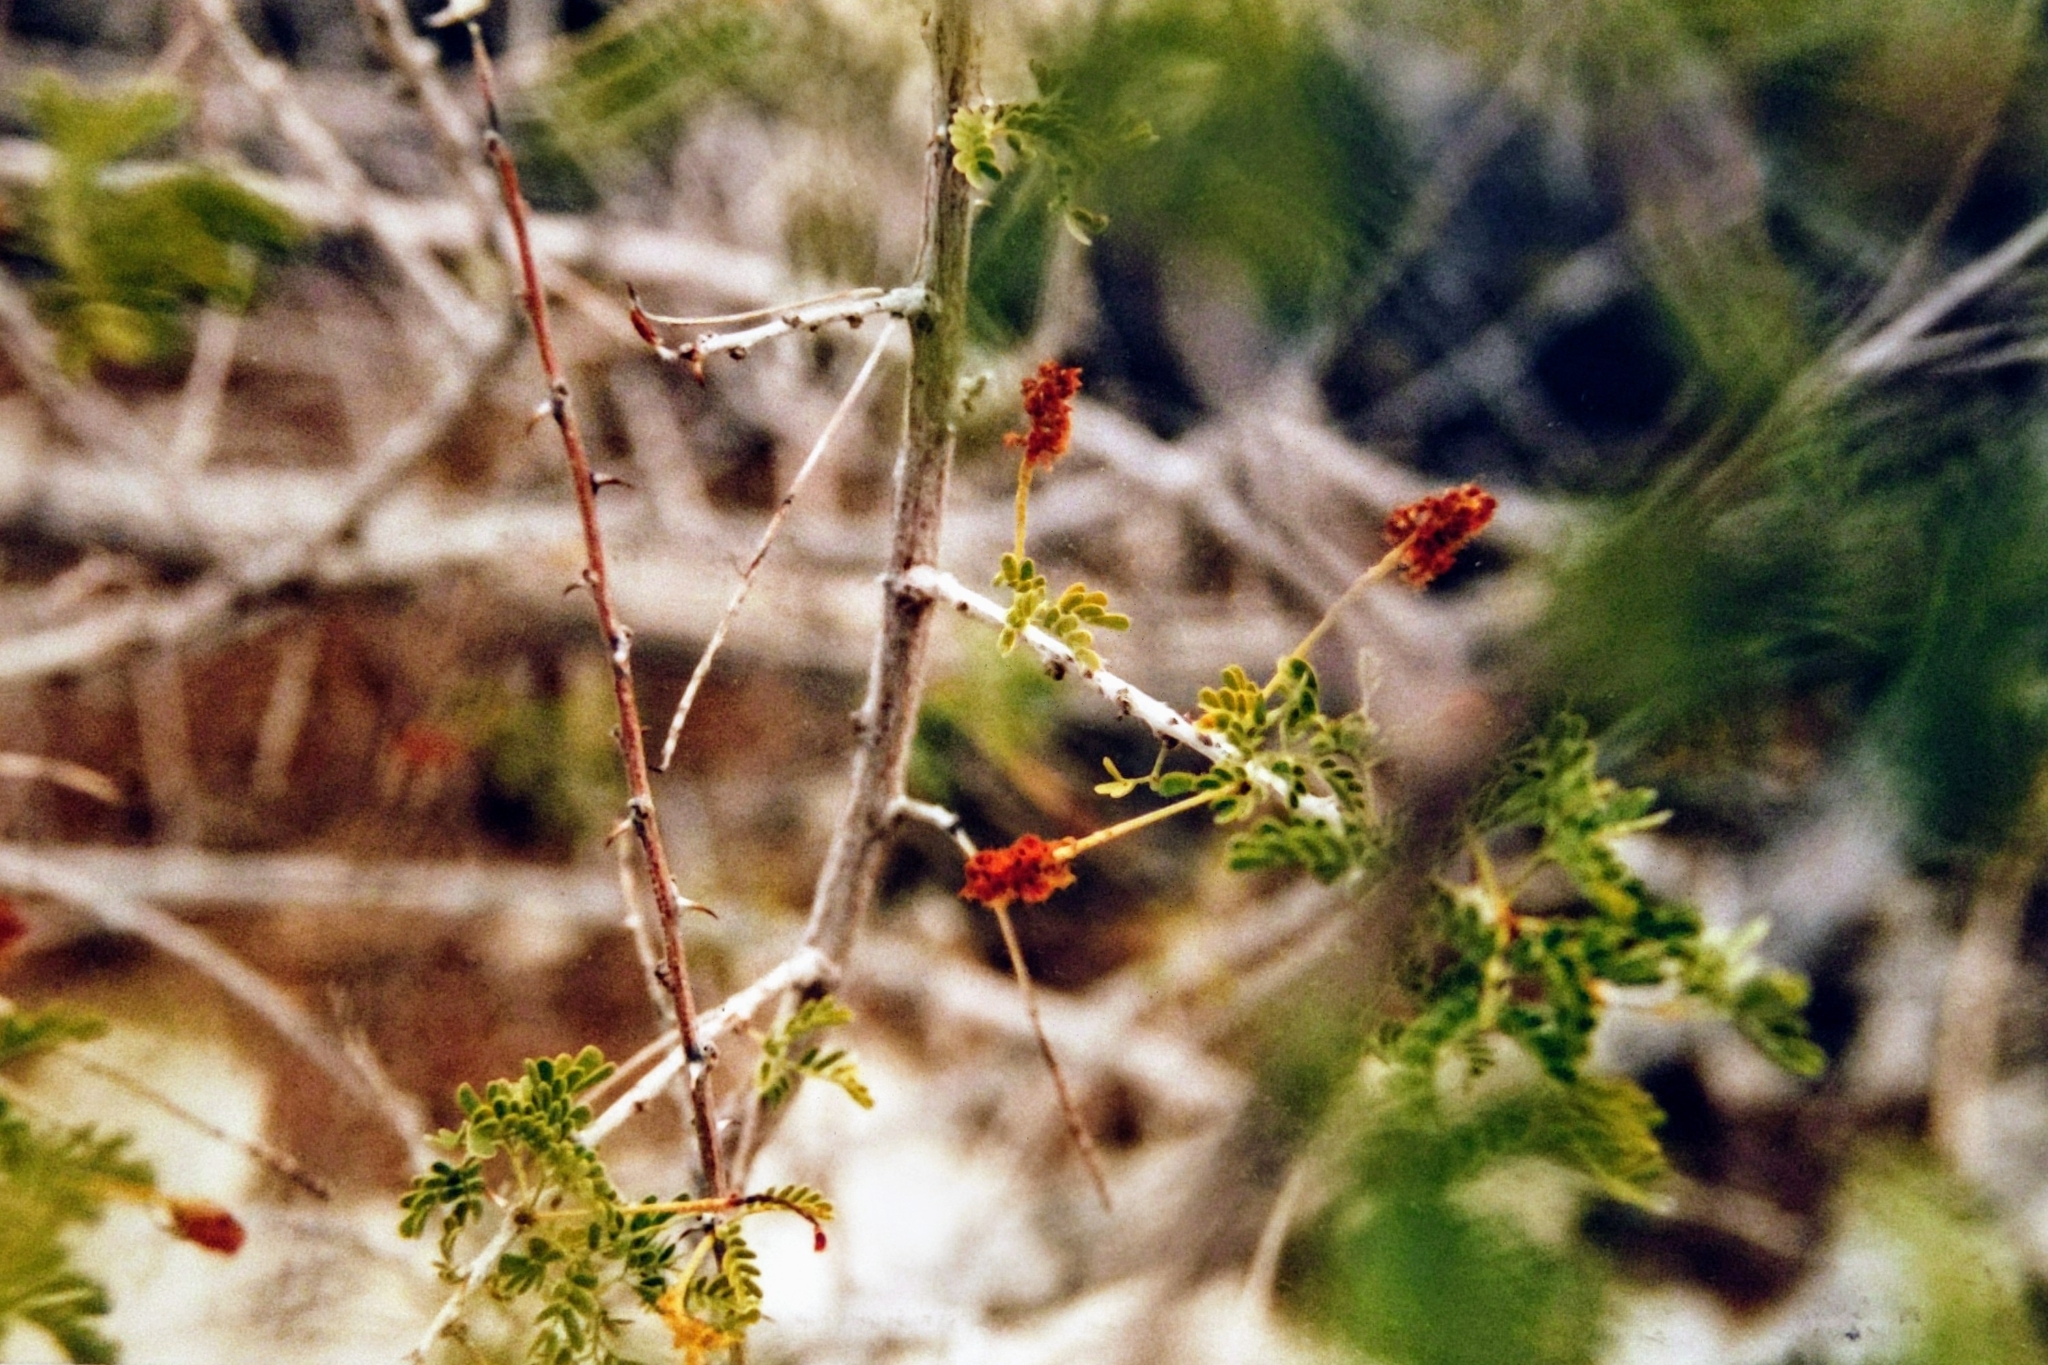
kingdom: Plantae
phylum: Tracheophyta
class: Magnoliopsida
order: Fabales
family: Fabaceae
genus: Senegalia
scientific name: Senegalia greggii
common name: Texas-mimosa
